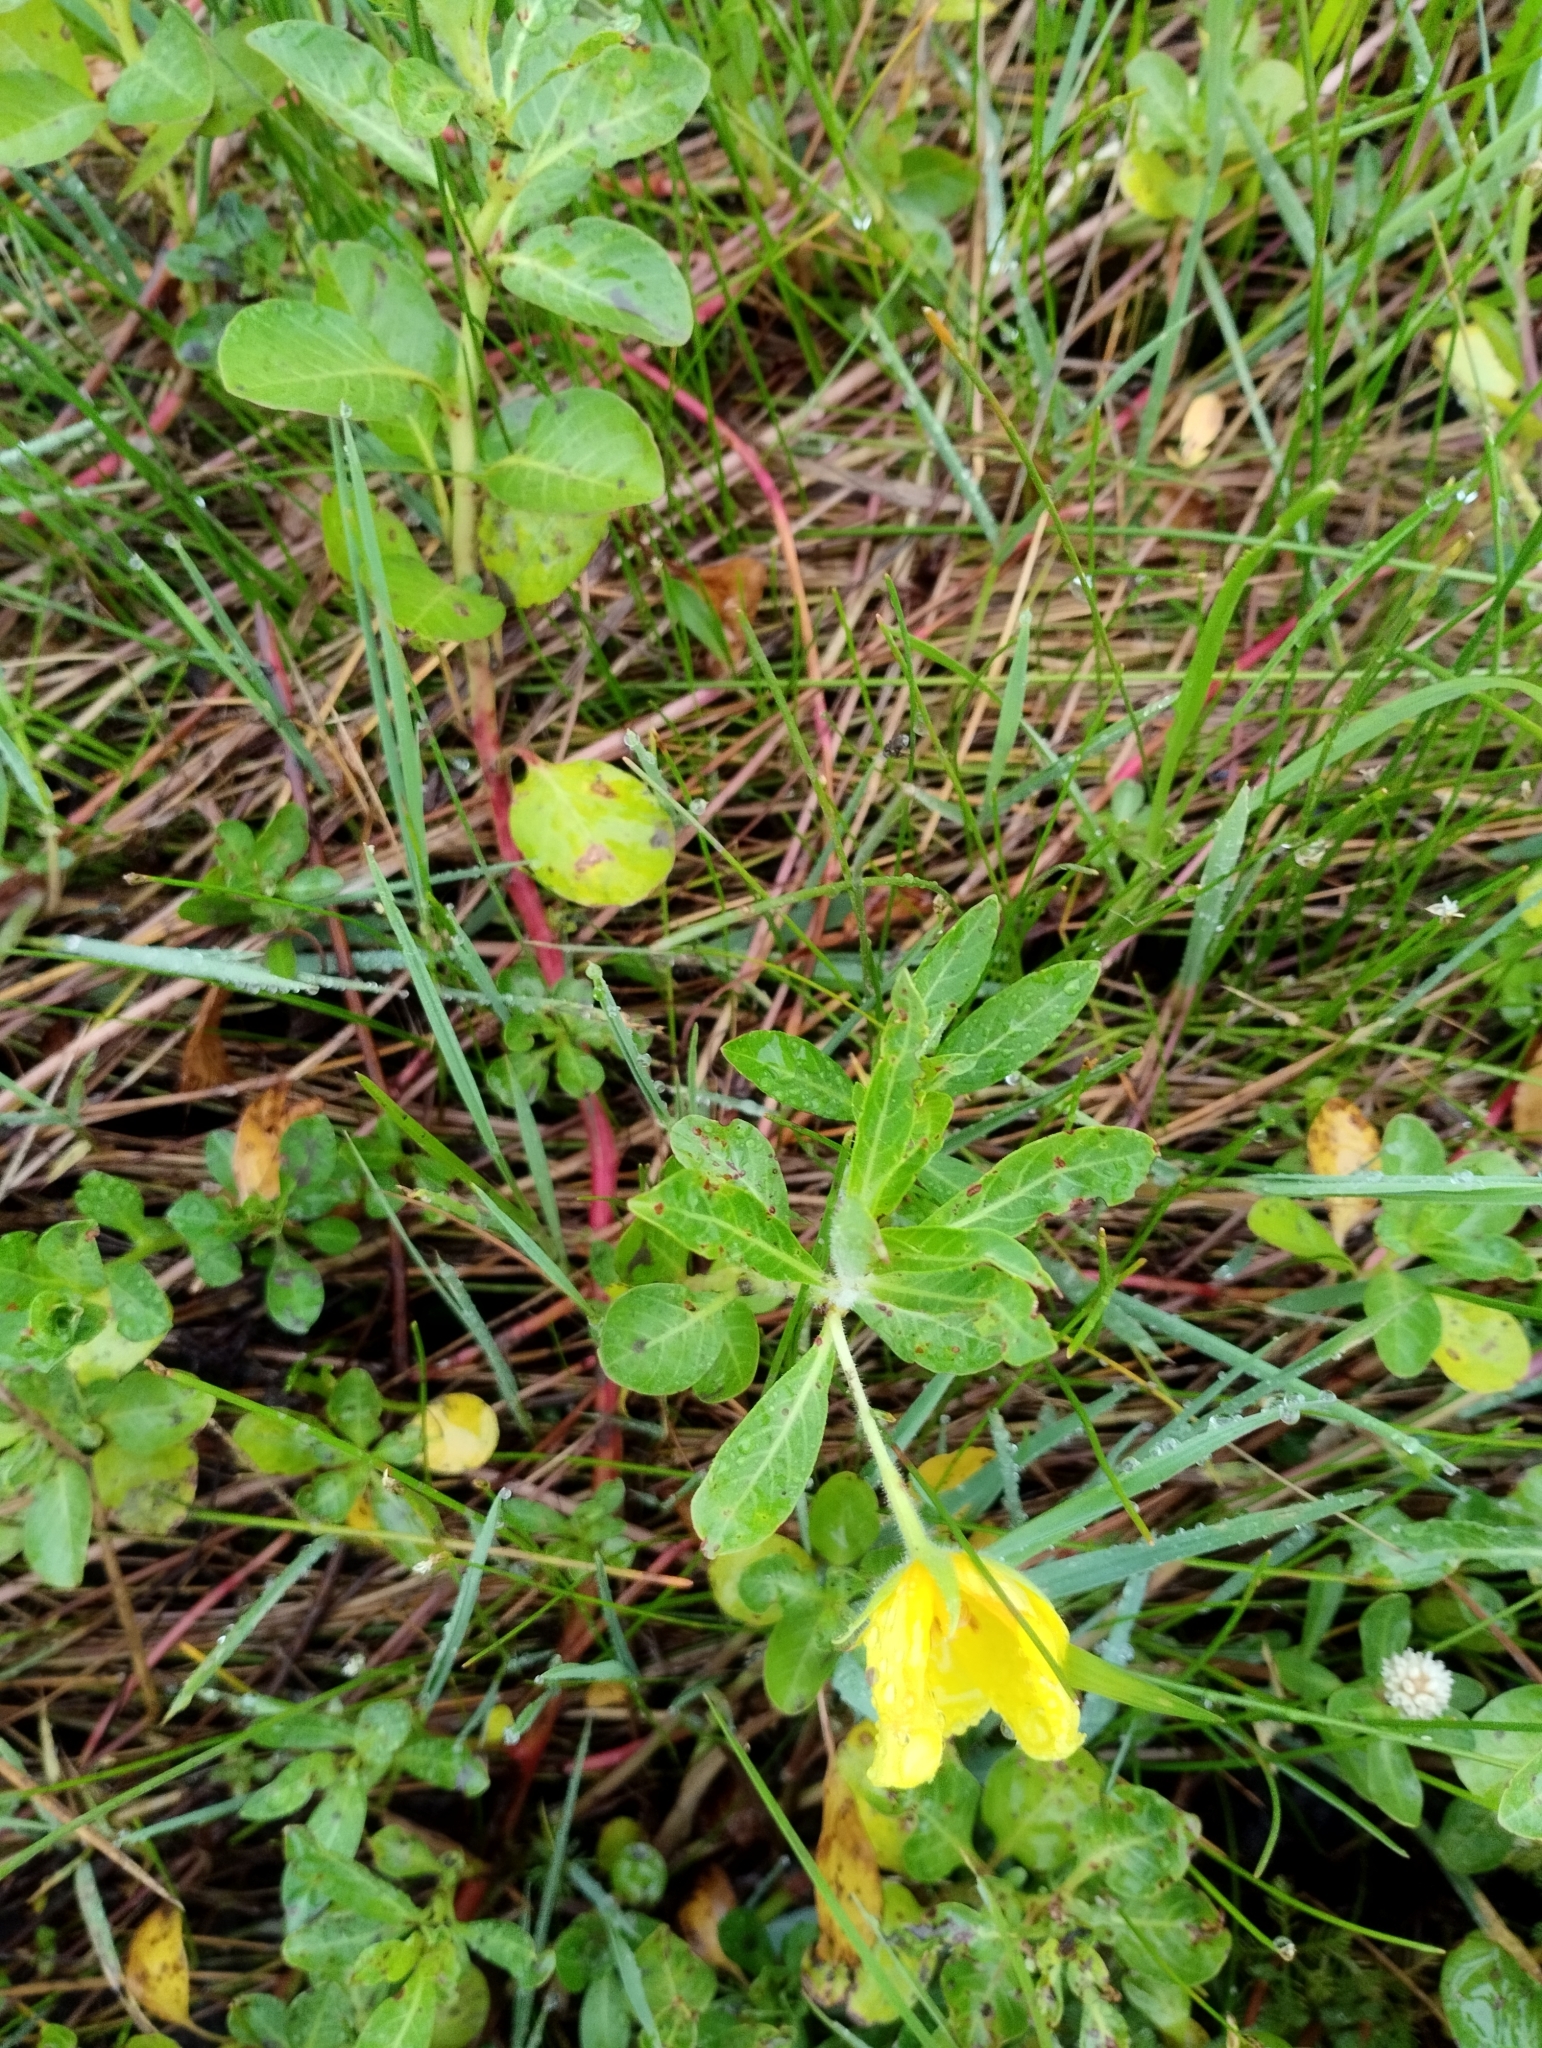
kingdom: Plantae
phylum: Tracheophyta
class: Magnoliopsida
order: Myrtales
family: Onagraceae
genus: Ludwigia
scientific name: Ludwigia peploides
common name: Floating primrose-willow
